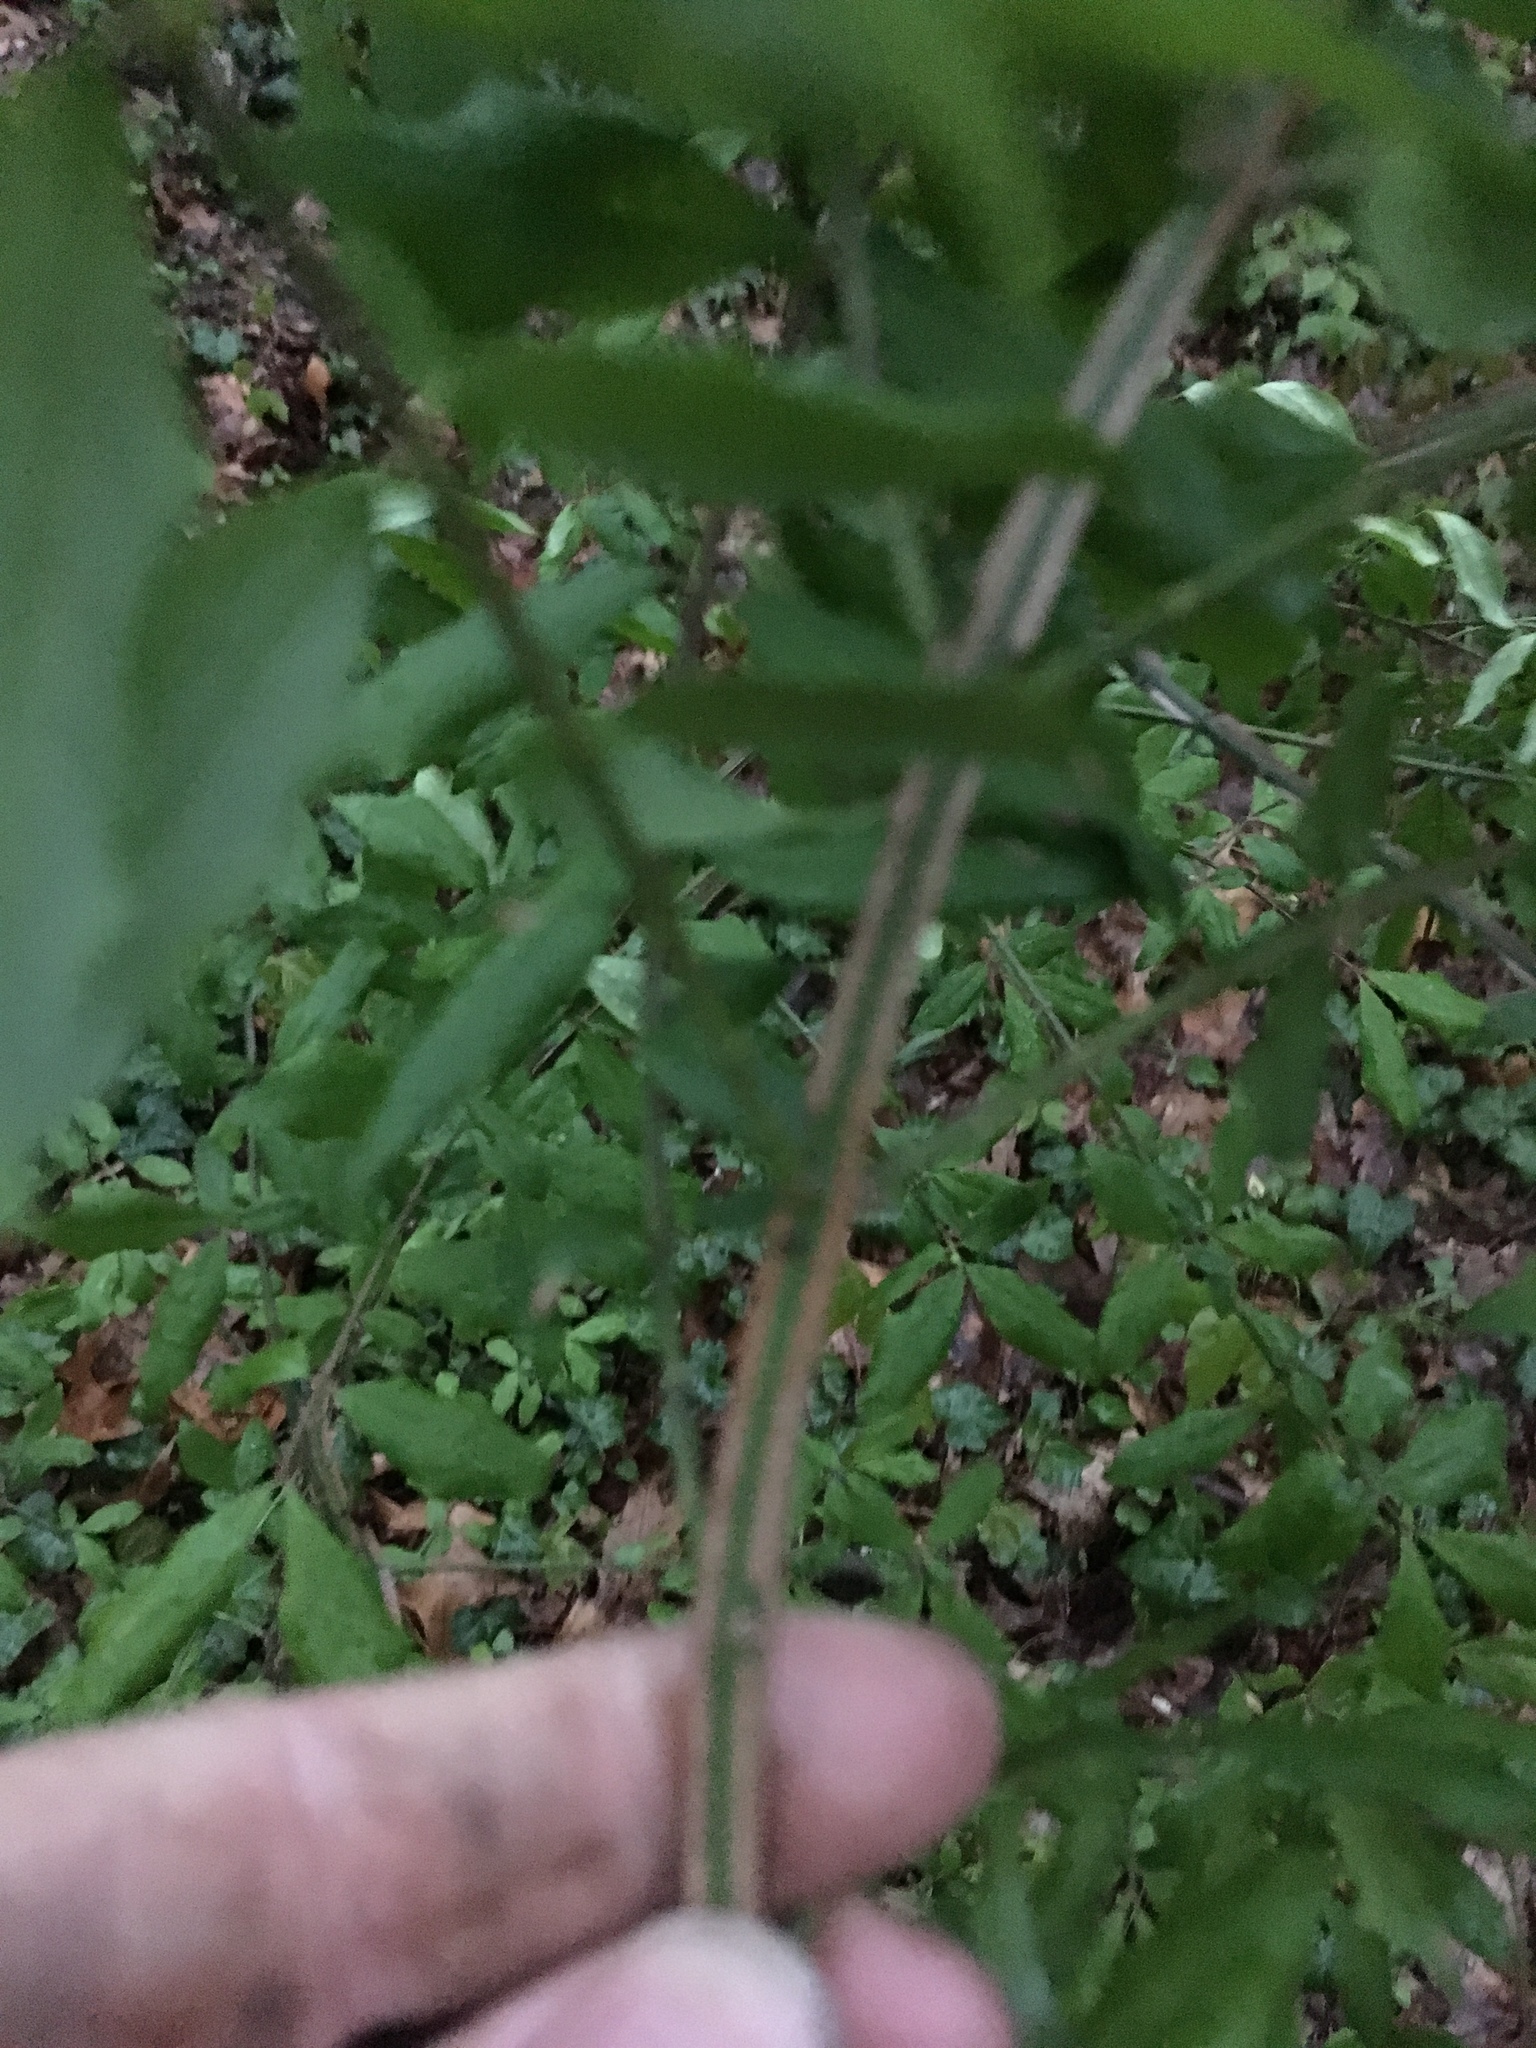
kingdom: Plantae
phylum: Tracheophyta
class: Magnoliopsida
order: Celastrales
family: Celastraceae
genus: Euonymus
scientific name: Euonymus alatus
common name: Winged euonymus
